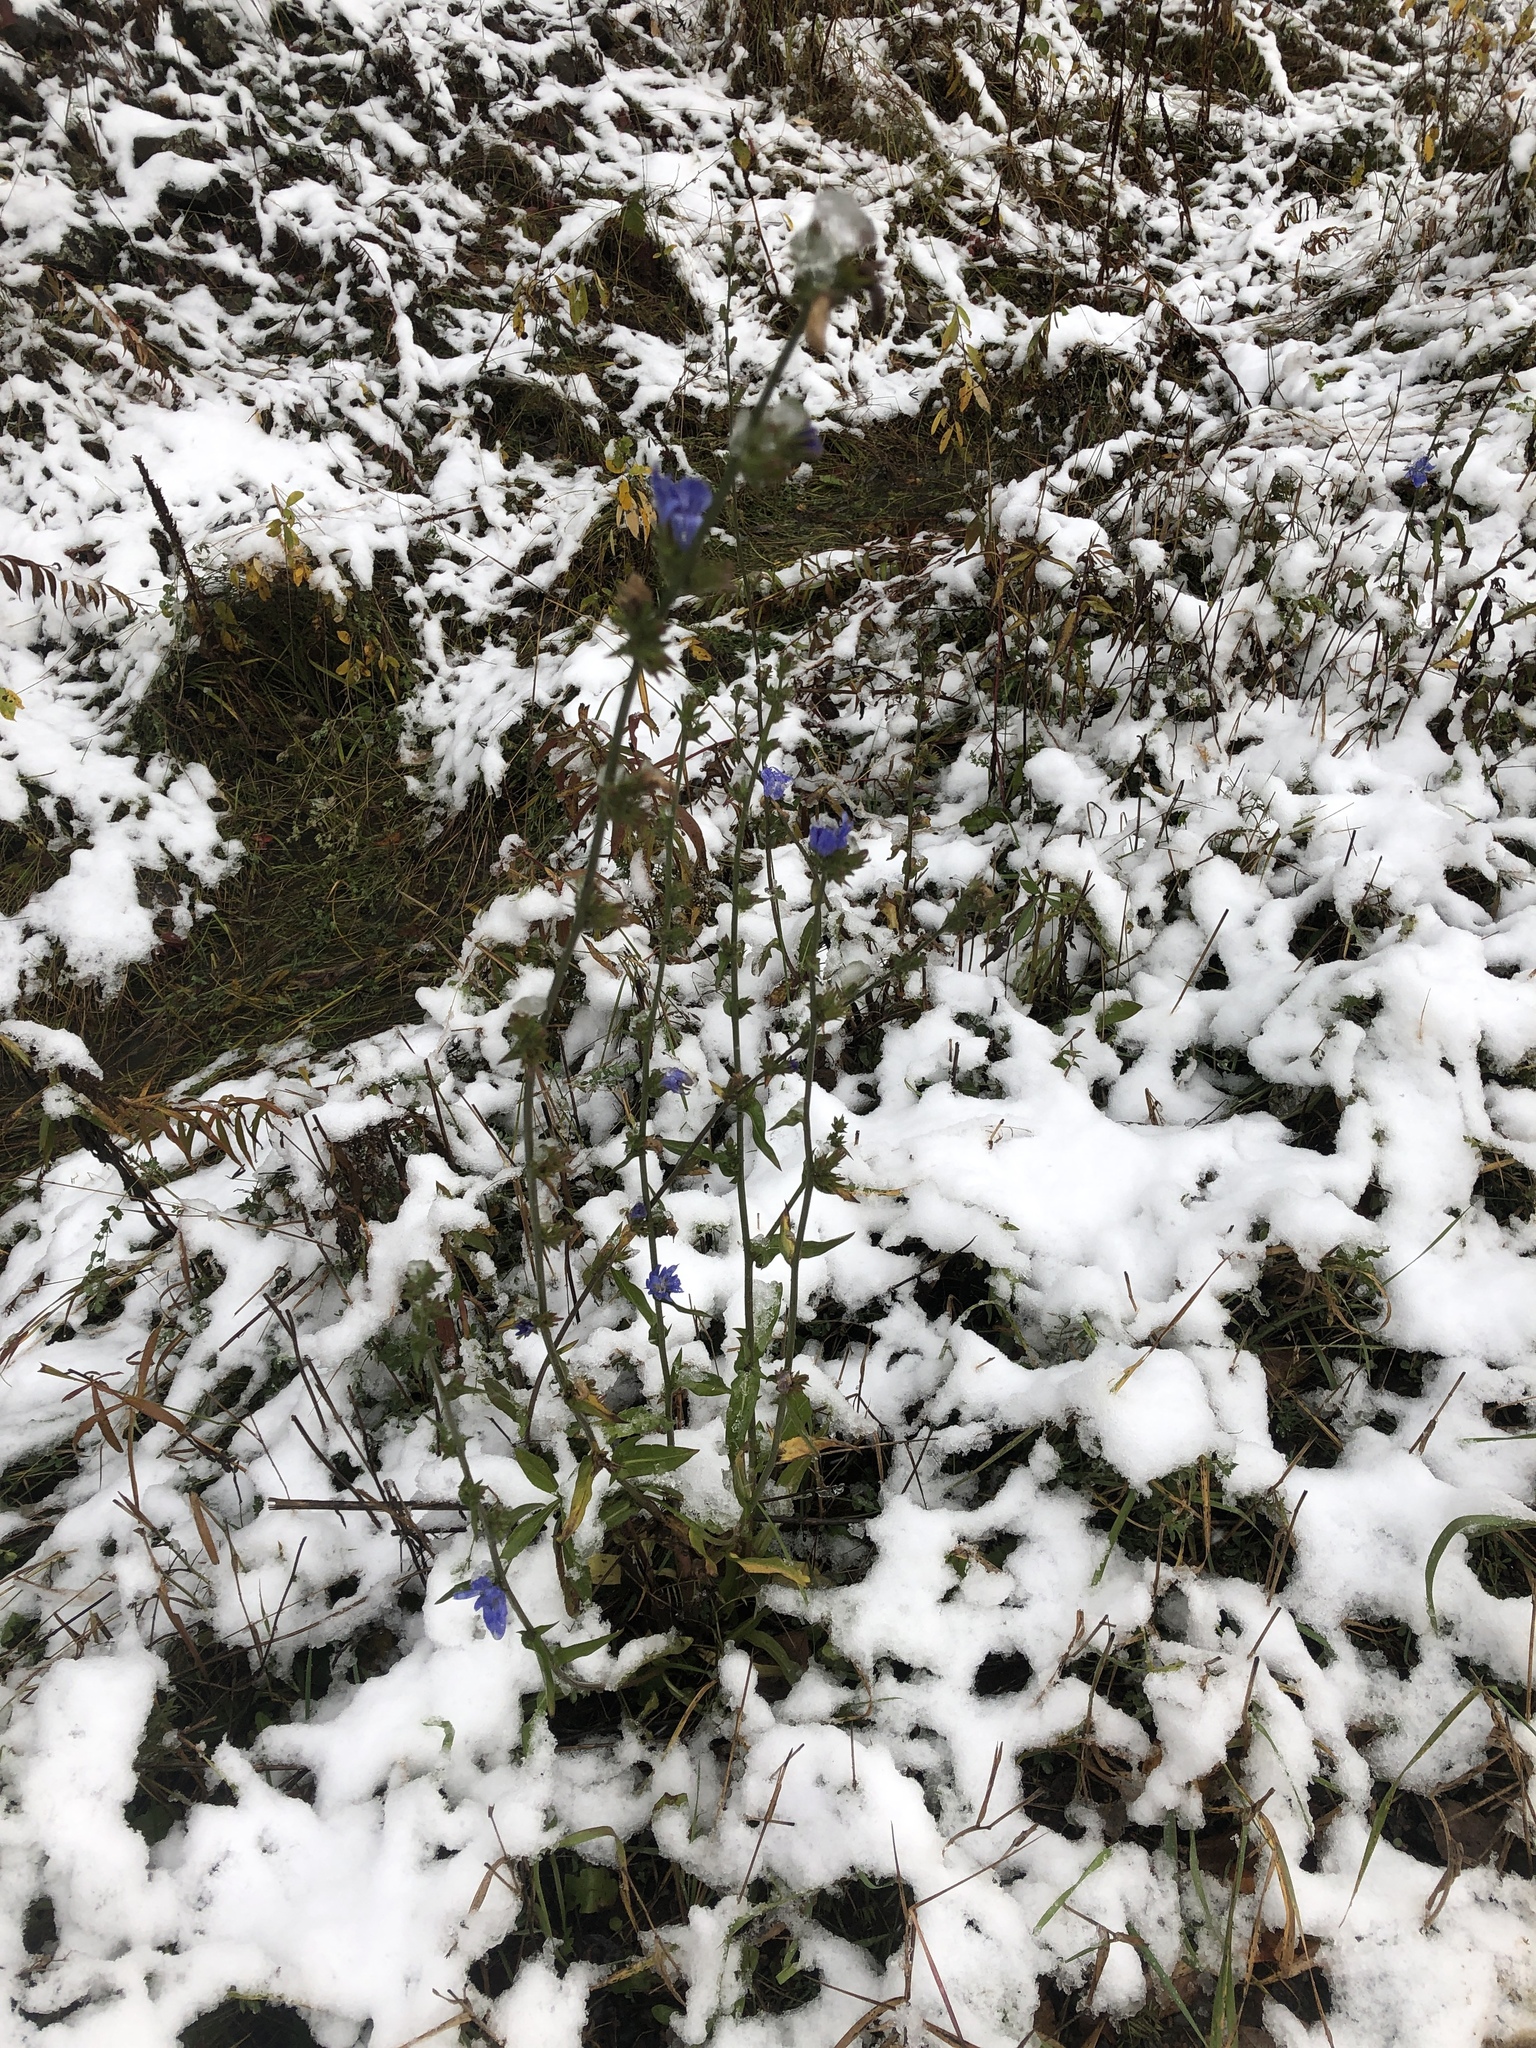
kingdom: Plantae
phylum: Tracheophyta
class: Magnoliopsida
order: Asterales
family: Asteraceae
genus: Cichorium
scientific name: Cichorium intybus
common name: Chicory
